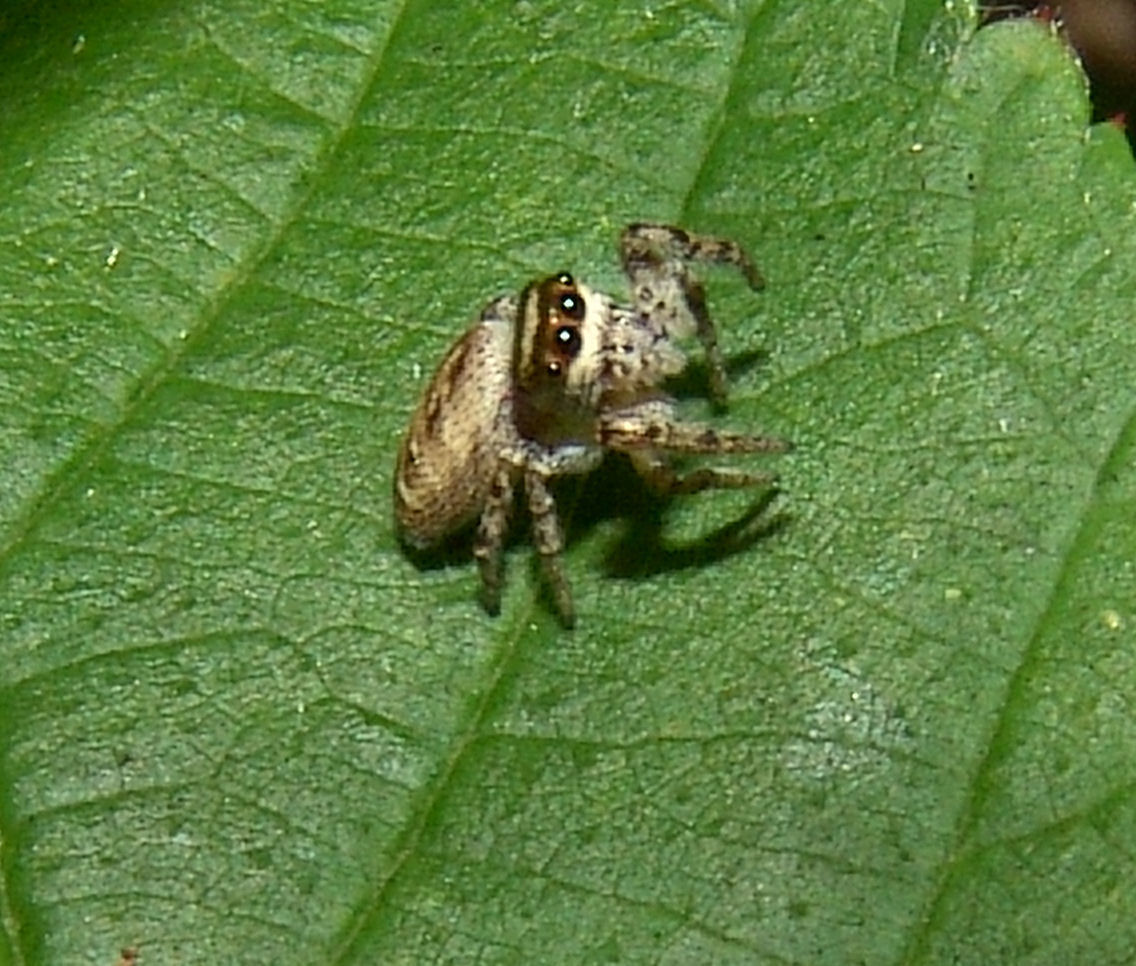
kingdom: Animalia
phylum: Arthropoda
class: Arachnida
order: Araneae
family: Salticidae
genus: Eris
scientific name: Eris militaris
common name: Bronze jumper
